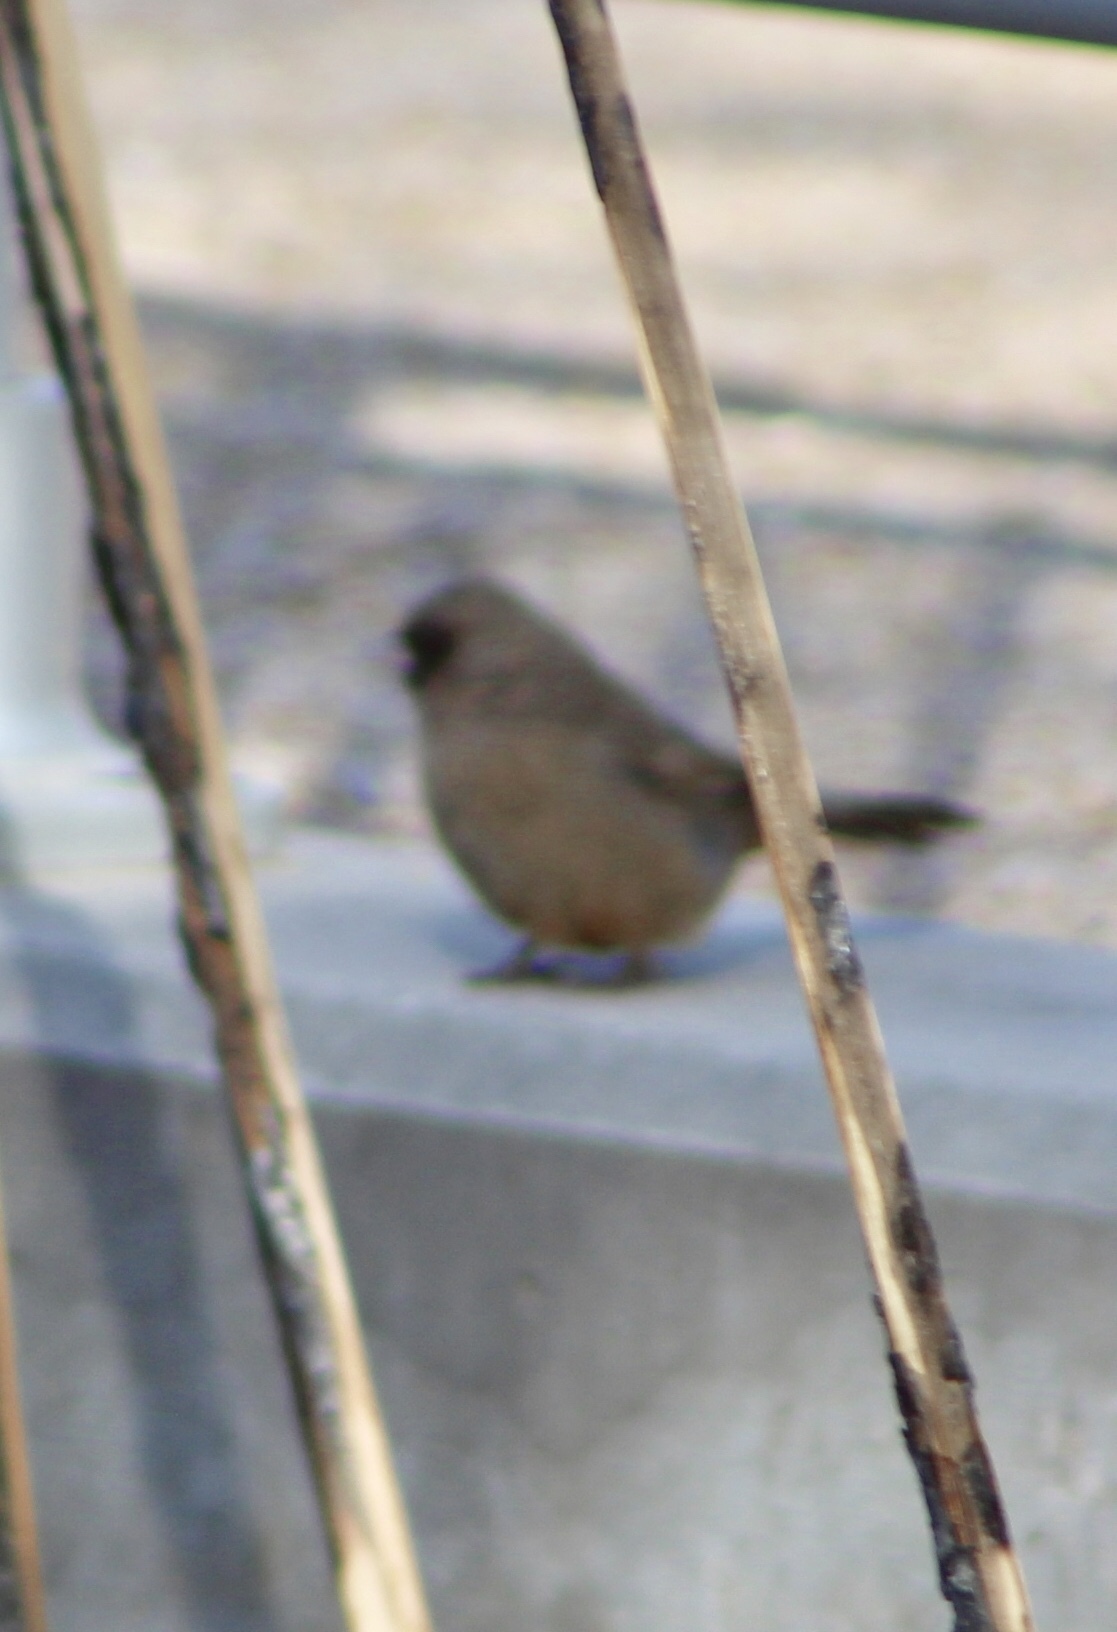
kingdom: Animalia
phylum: Chordata
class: Aves
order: Passeriformes
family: Passerellidae
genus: Melozone
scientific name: Melozone aberti
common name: Abert's towhee
